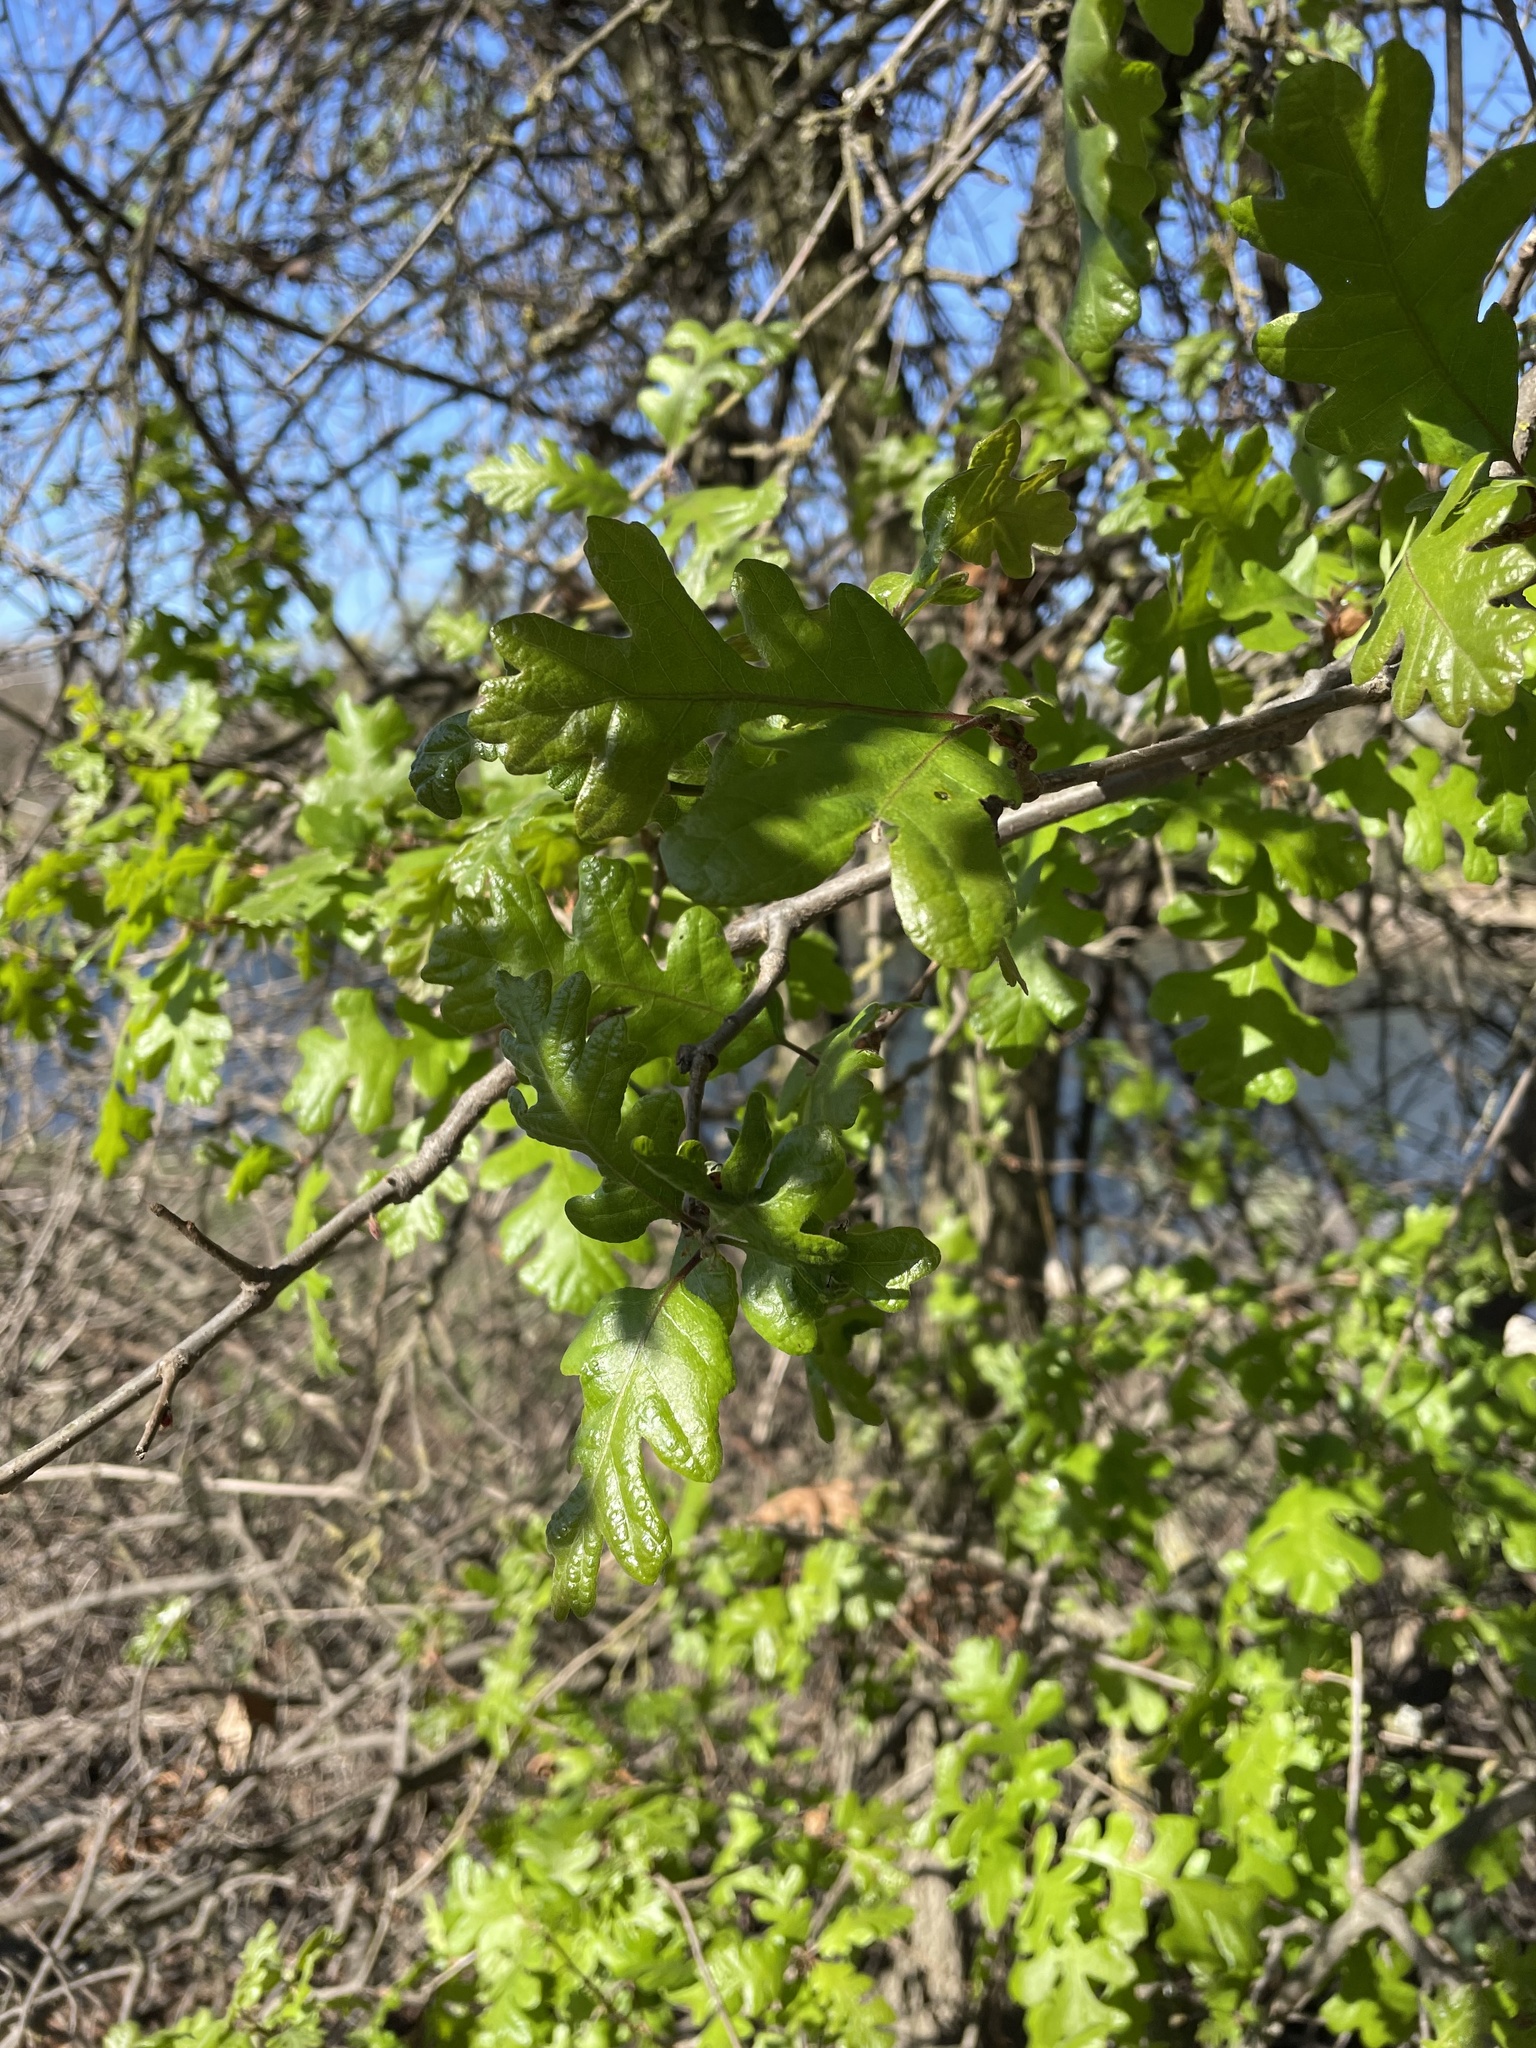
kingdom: Plantae
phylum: Tracheophyta
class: Magnoliopsida
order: Fagales
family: Fagaceae
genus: Quercus
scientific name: Quercus lobata
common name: Valley oak
